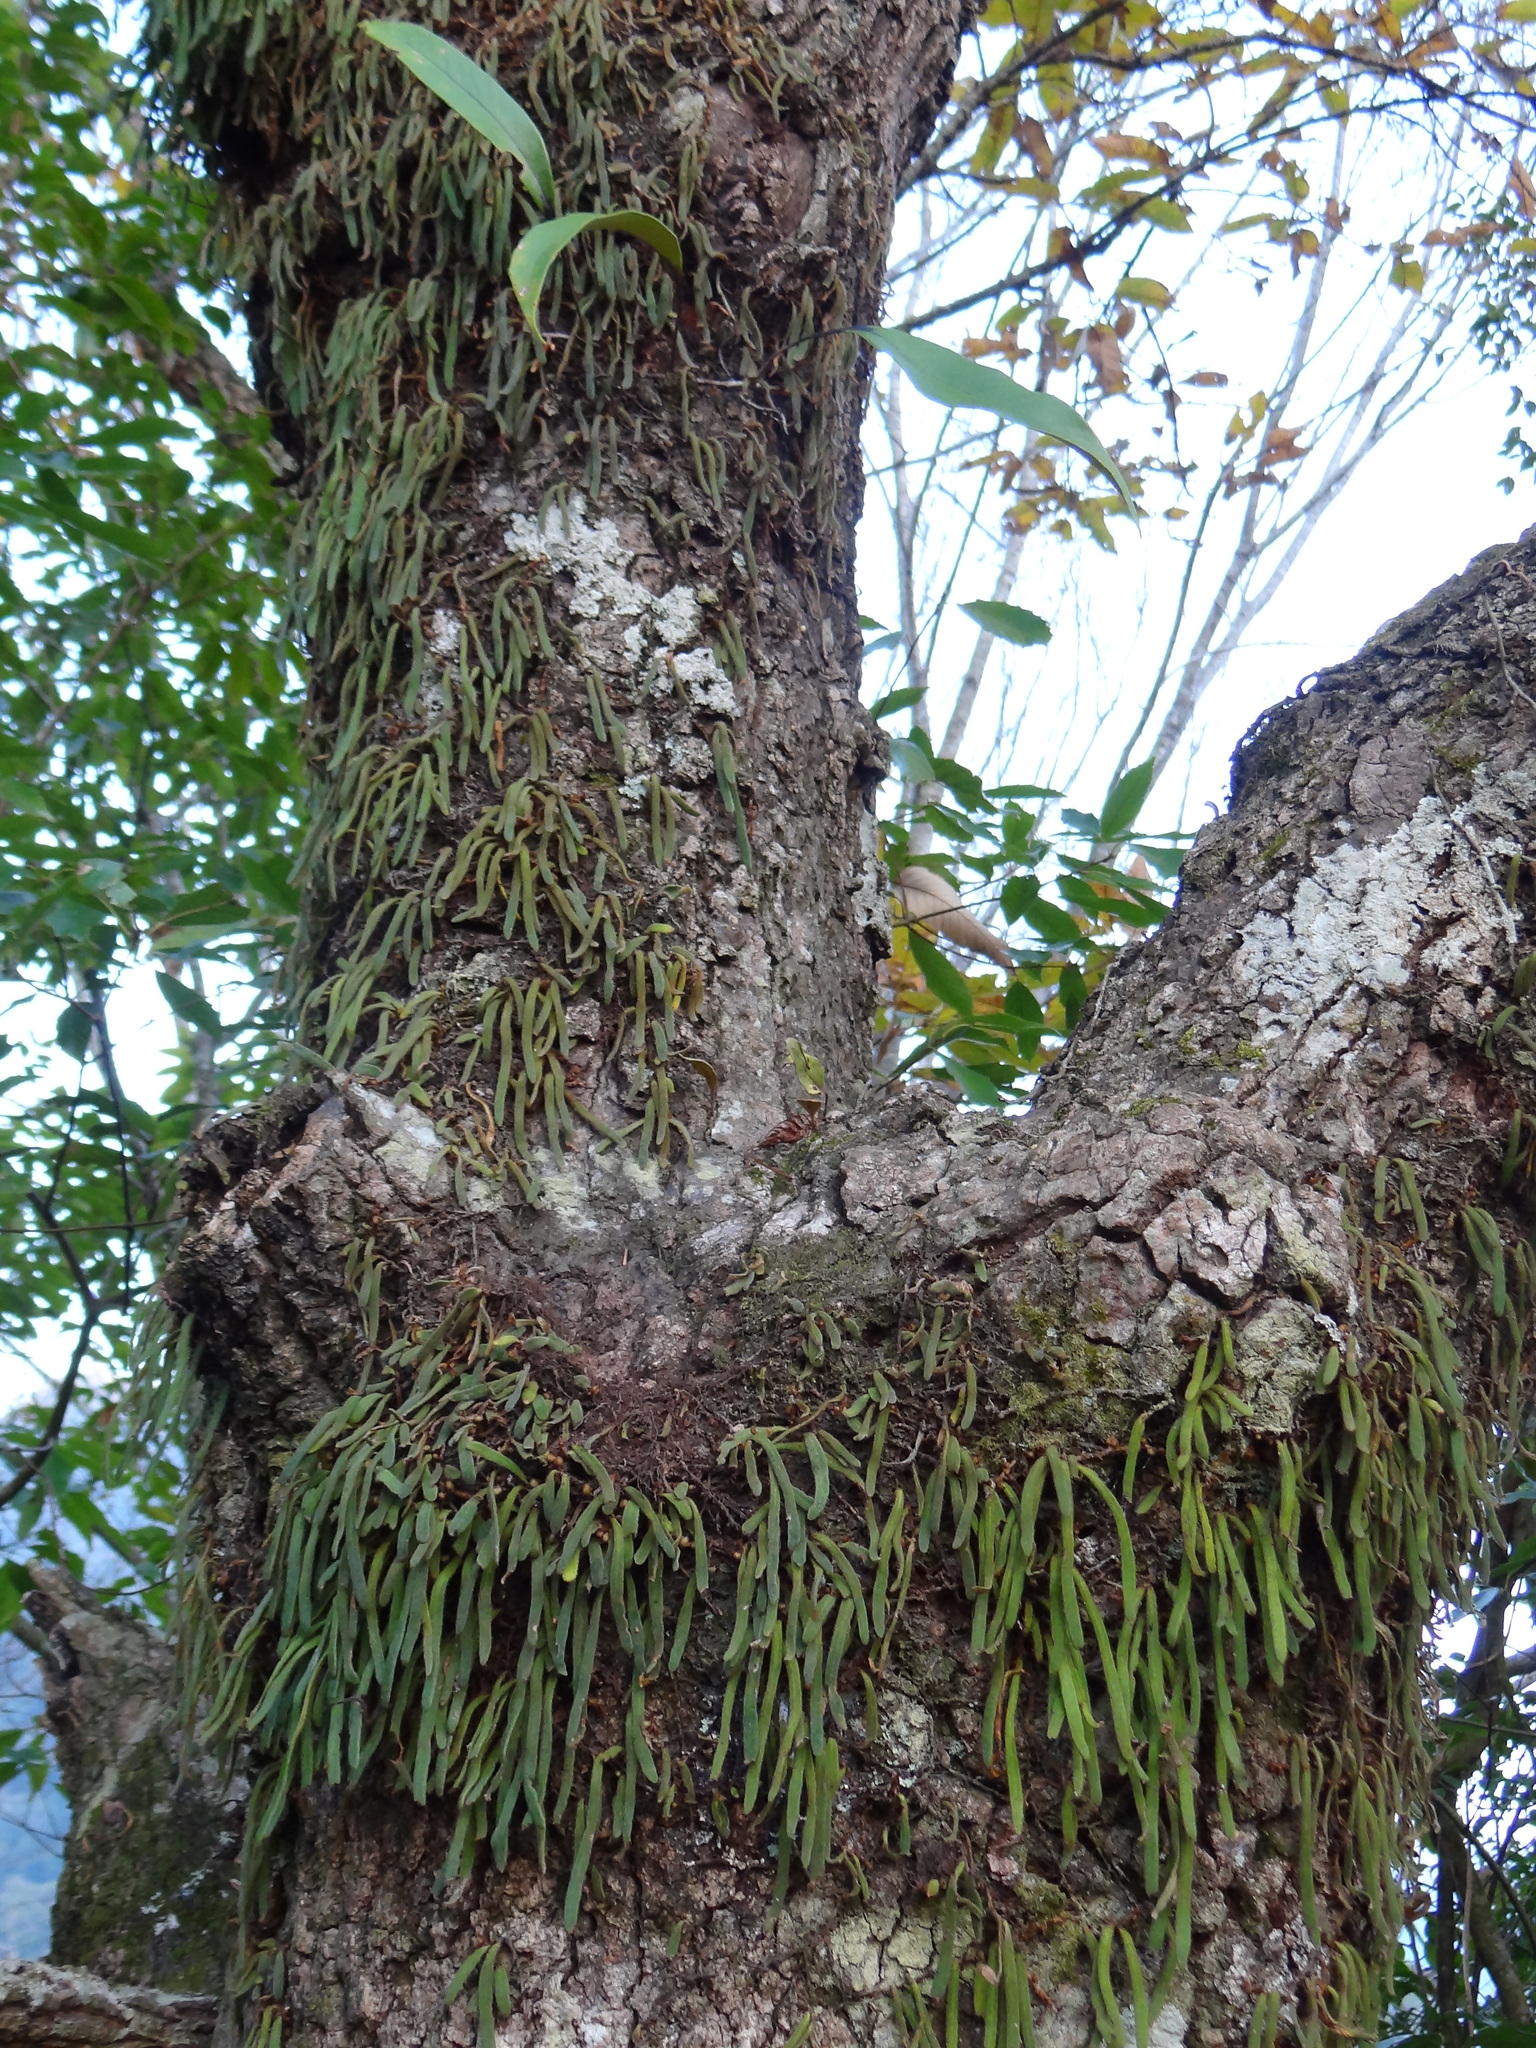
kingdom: Plantae
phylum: Tracheophyta
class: Polypodiopsida
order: Polypodiales
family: Polypodiaceae
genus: Pyrrosia
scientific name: Pyrrosia linearifolia
